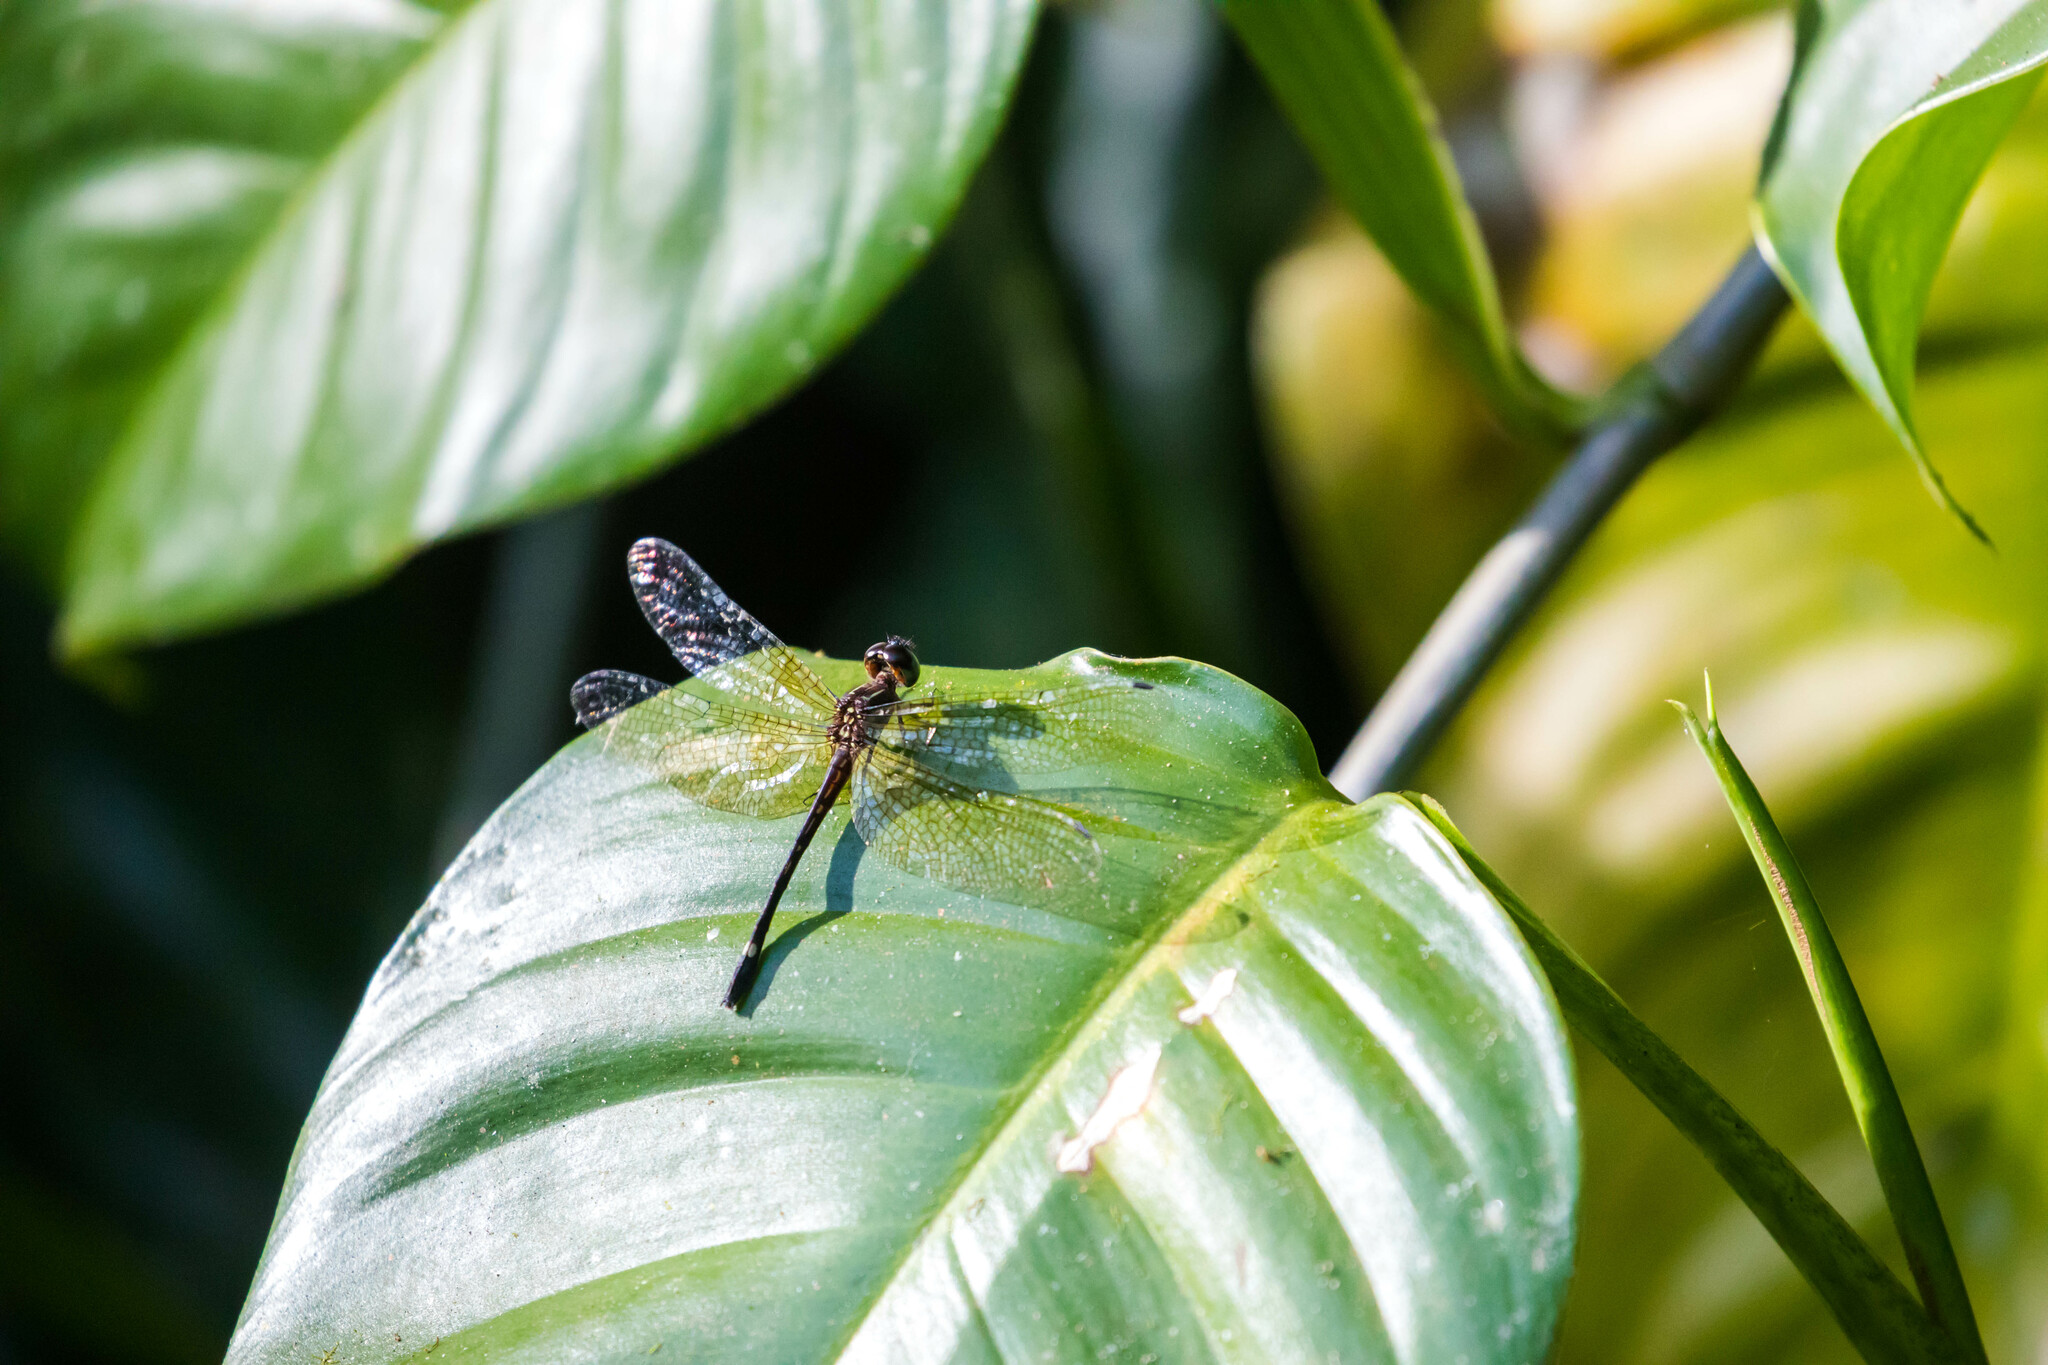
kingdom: Animalia
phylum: Arthropoda
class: Insecta
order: Odonata
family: Libellulidae
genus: Macrothemis
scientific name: Macrothemis inequiunguis
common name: Jade-striped sylph
